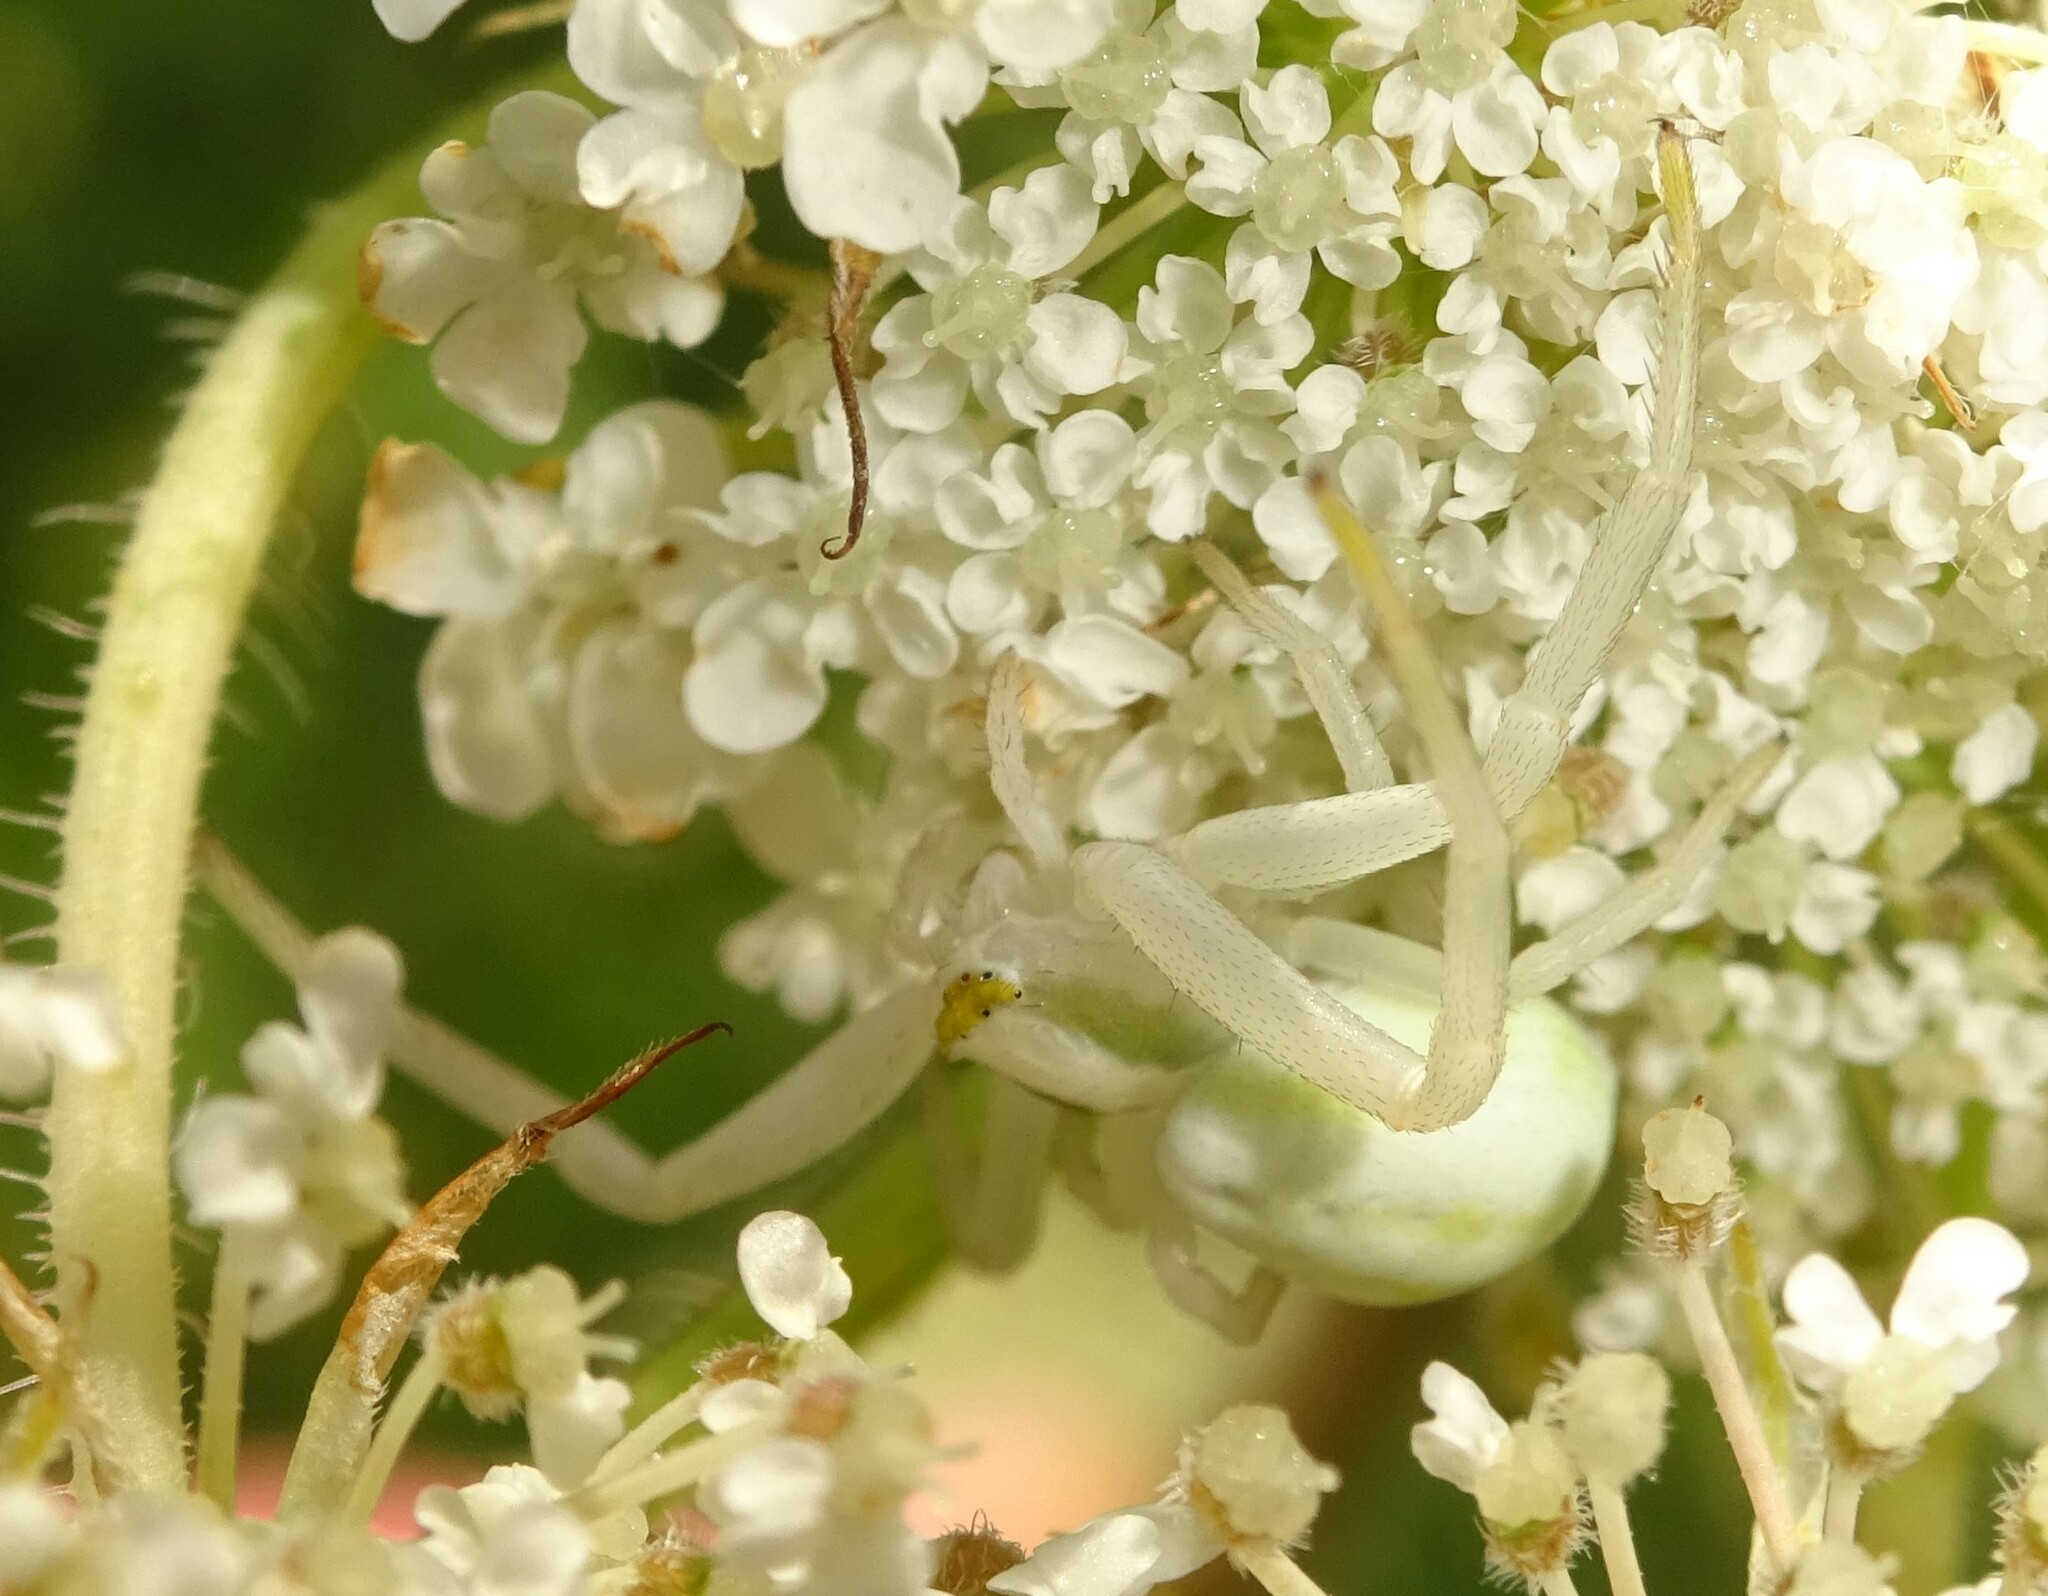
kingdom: Animalia
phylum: Arthropoda
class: Arachnida
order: Araneae
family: Thomisidae
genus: Misumena
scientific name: Misumena vatia
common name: Goldenrod crab spider
